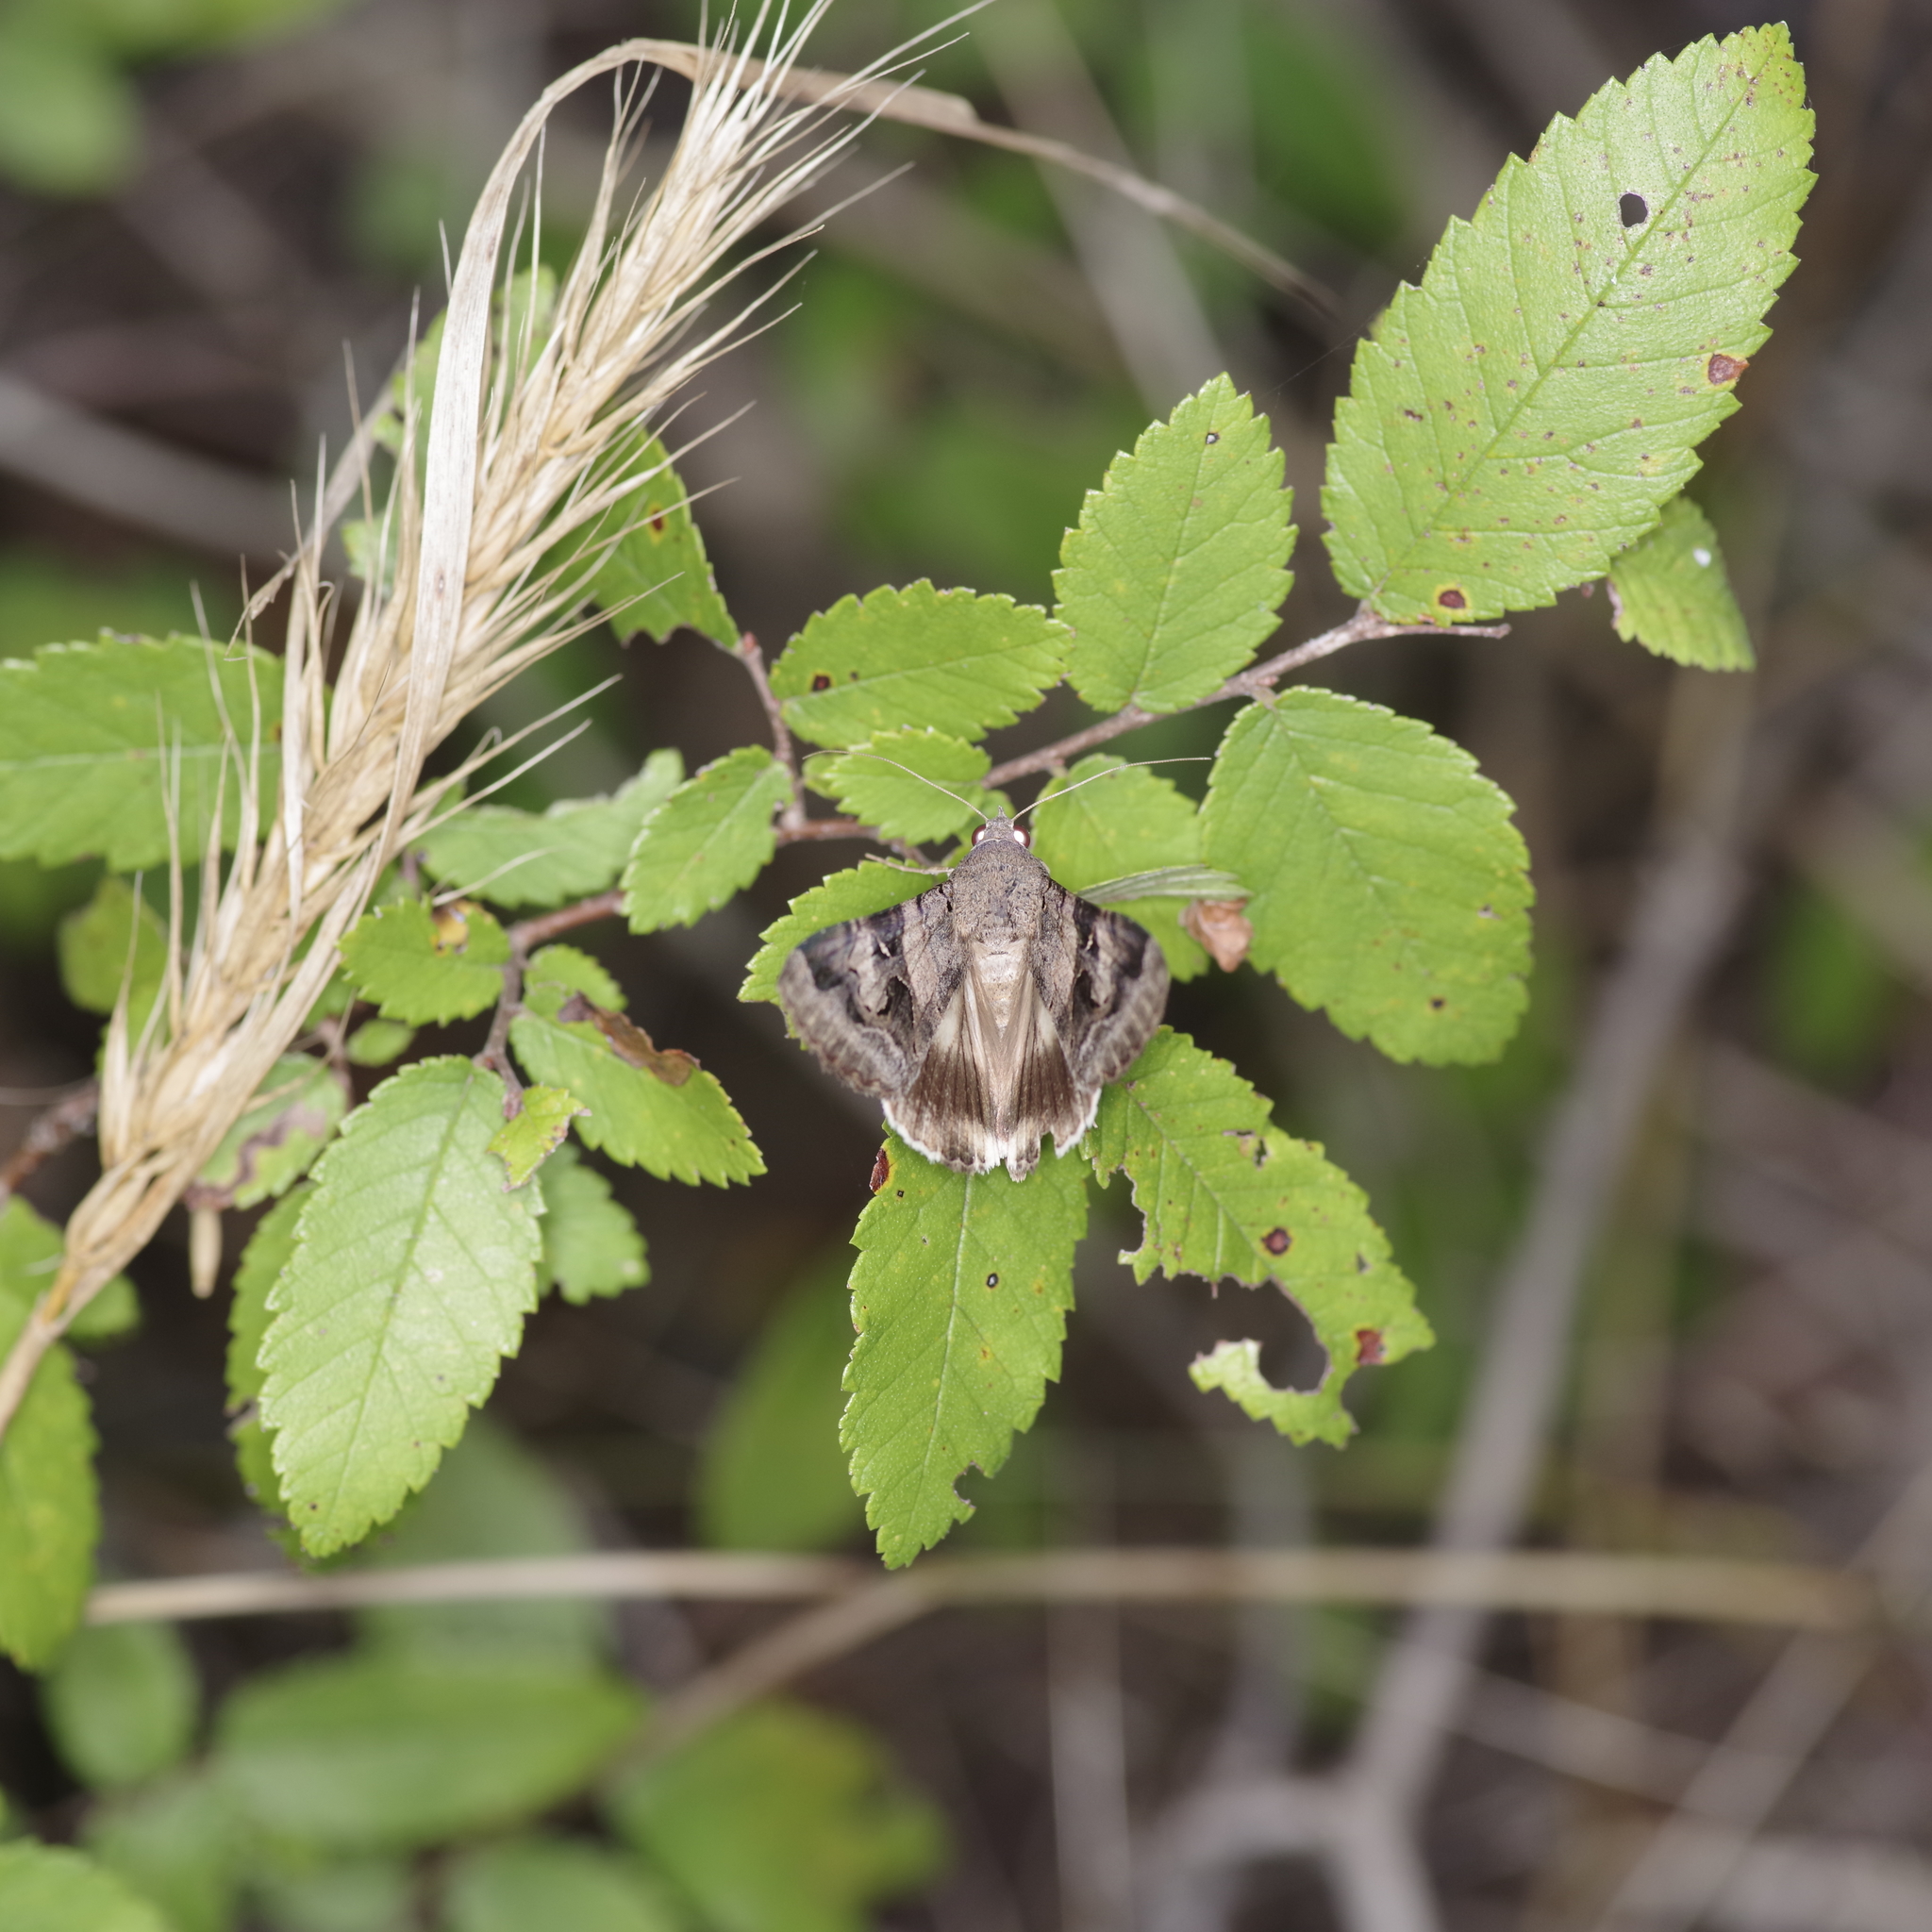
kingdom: Animalia
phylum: Arthropoda
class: Insecta
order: Lepidoptera
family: Erebidae
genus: Melipotis
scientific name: Melipotis indomita
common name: Moth
